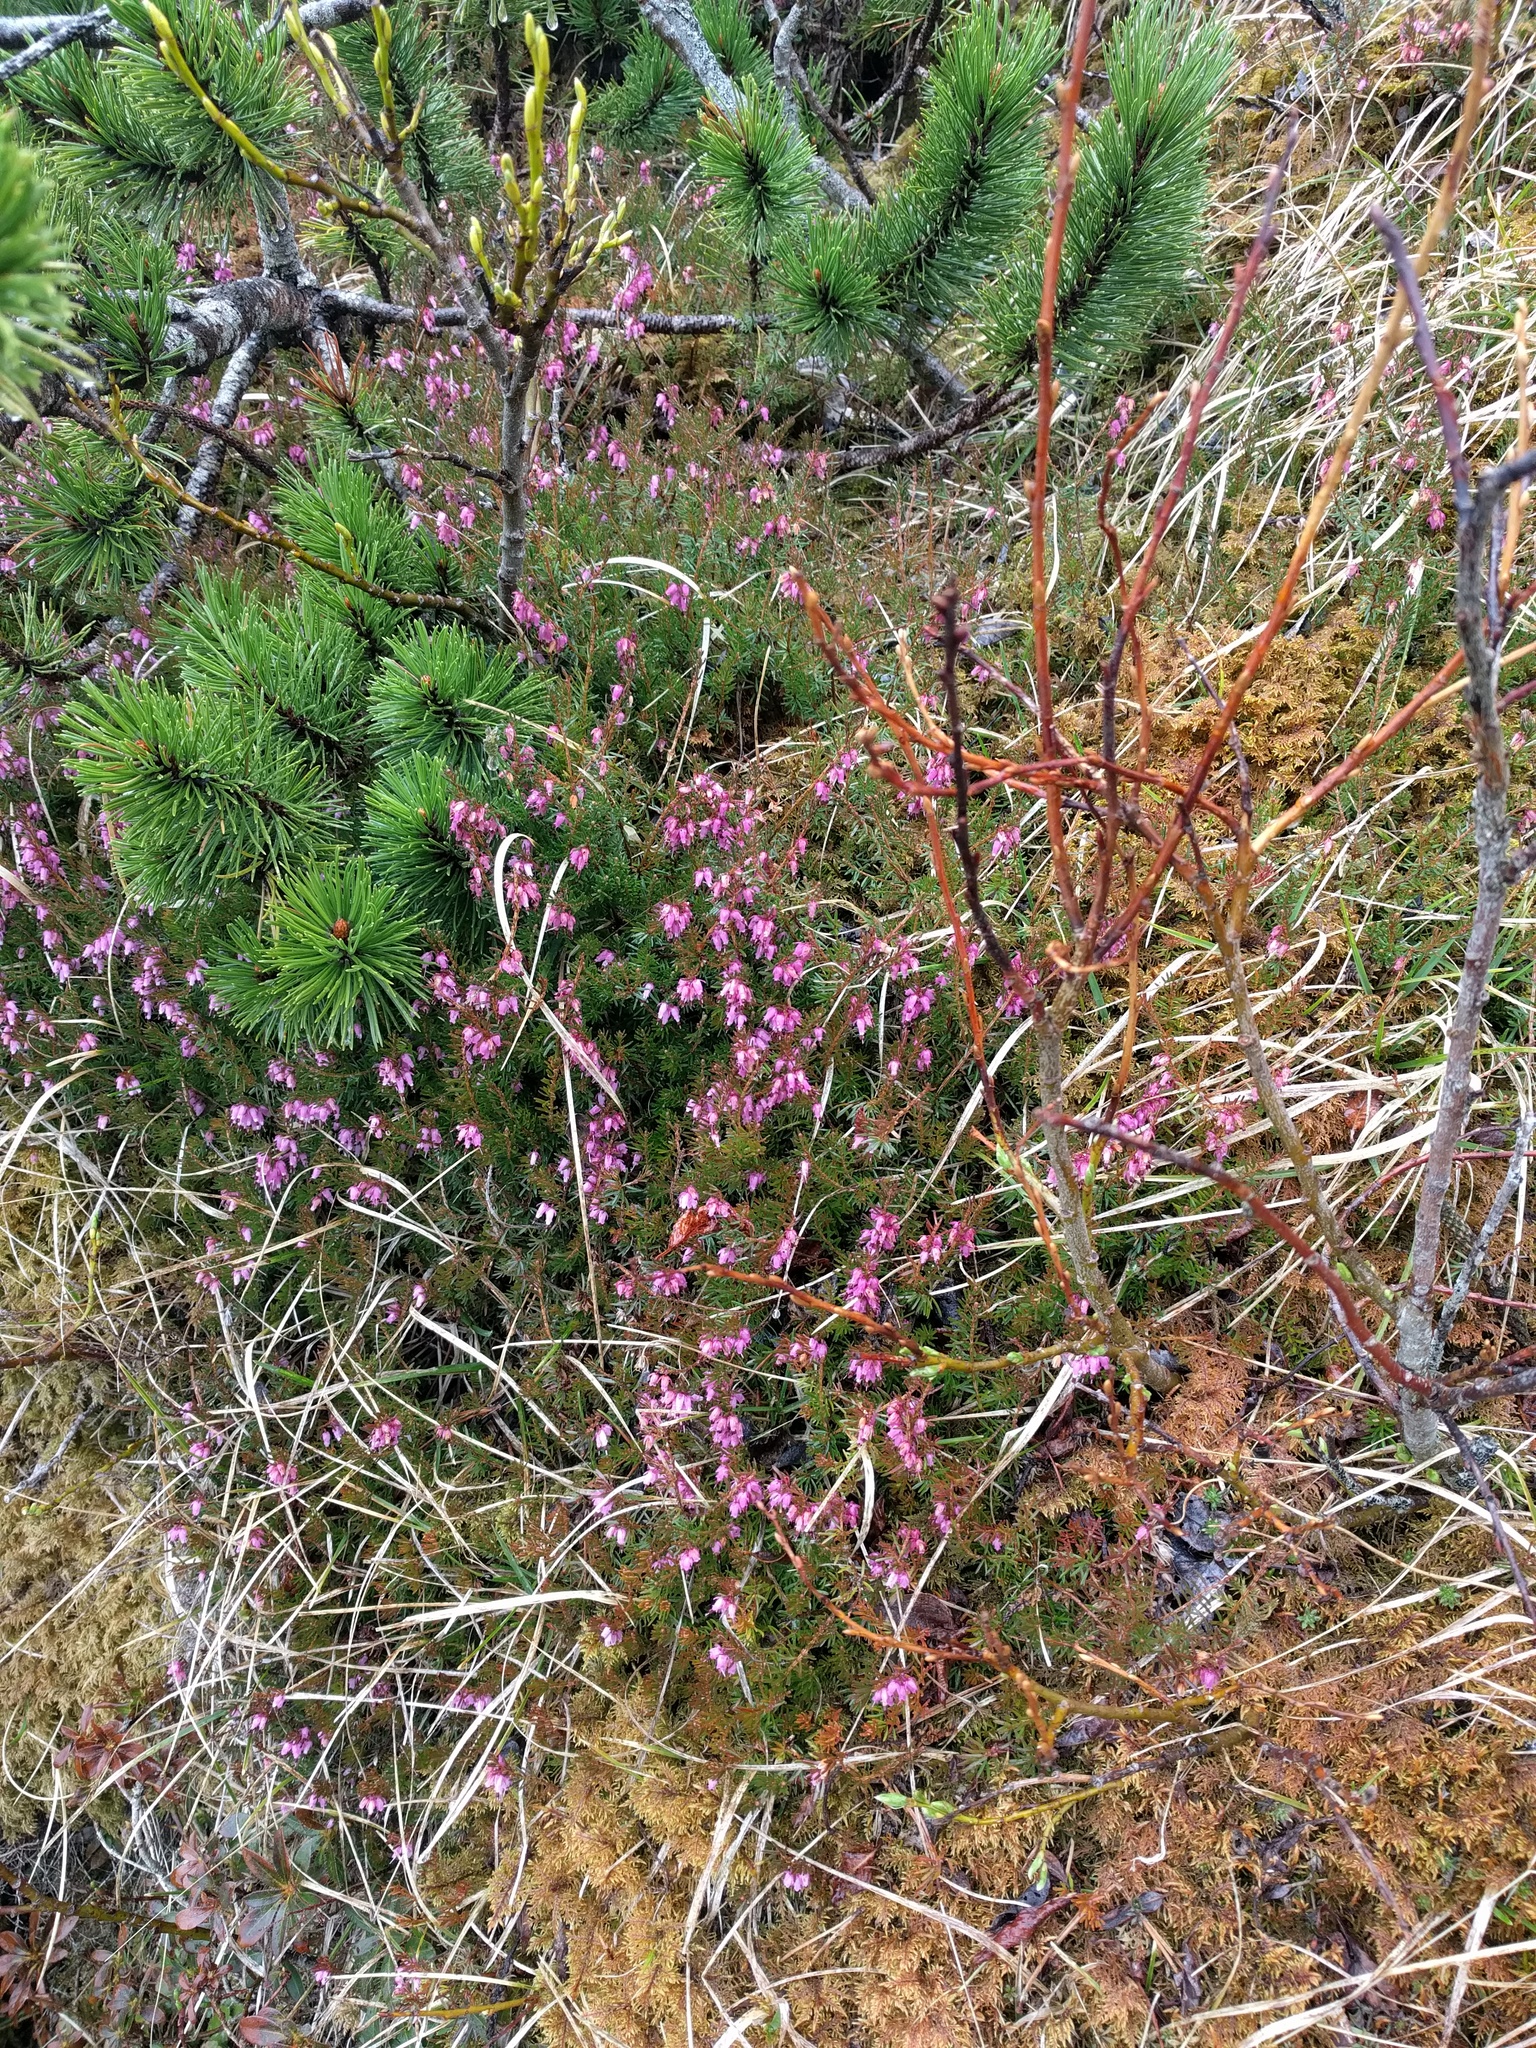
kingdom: Plantae
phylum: Tracheophyta
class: Magnoliopsida
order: Ericales
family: Ericaceae
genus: Erica
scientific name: Erica carnea
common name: Winter heath
